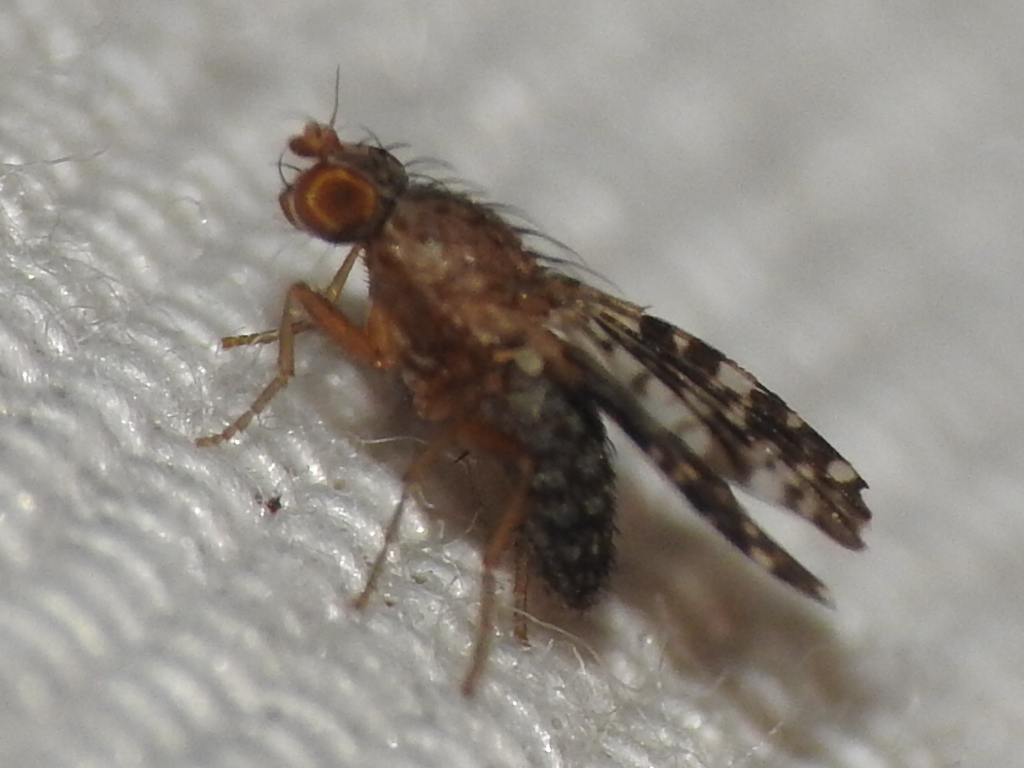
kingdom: Animalia
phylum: Arthropoda
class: Insecta
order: Diptera
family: Heleomyzidae
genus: Trixoscelis
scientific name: Trixoscelis ornata
